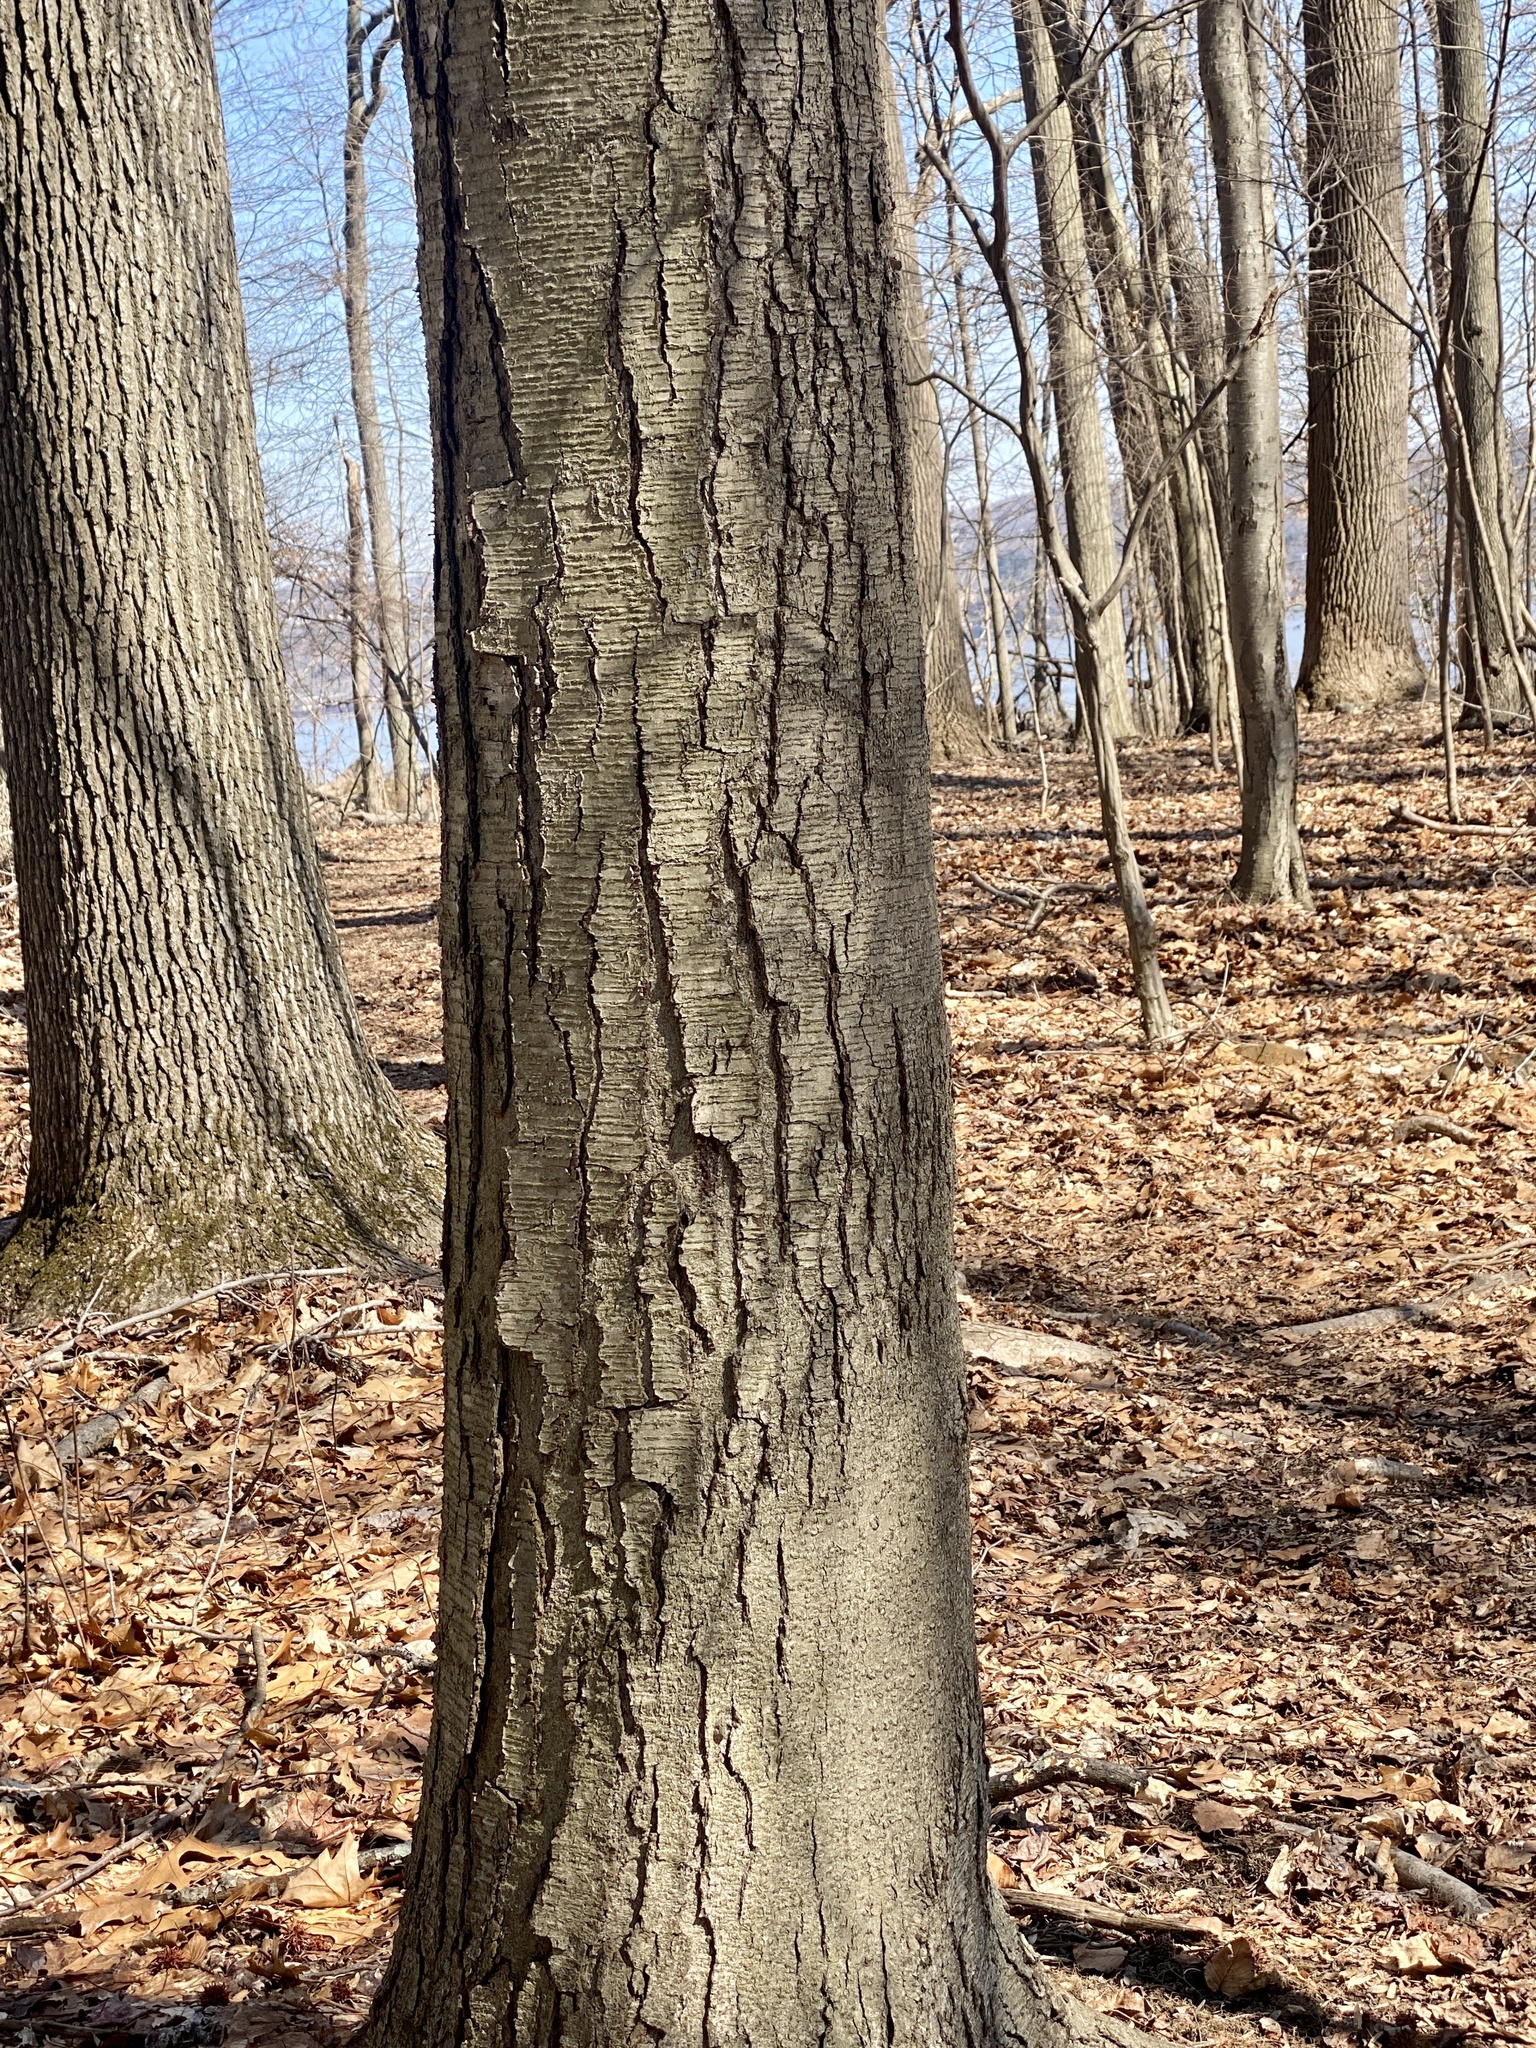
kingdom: Plantae
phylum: Tracheophyta
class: Magnoliopsida
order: Fagales
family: Betulaceae
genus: Betula
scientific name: Betula lenta
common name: Black birch
